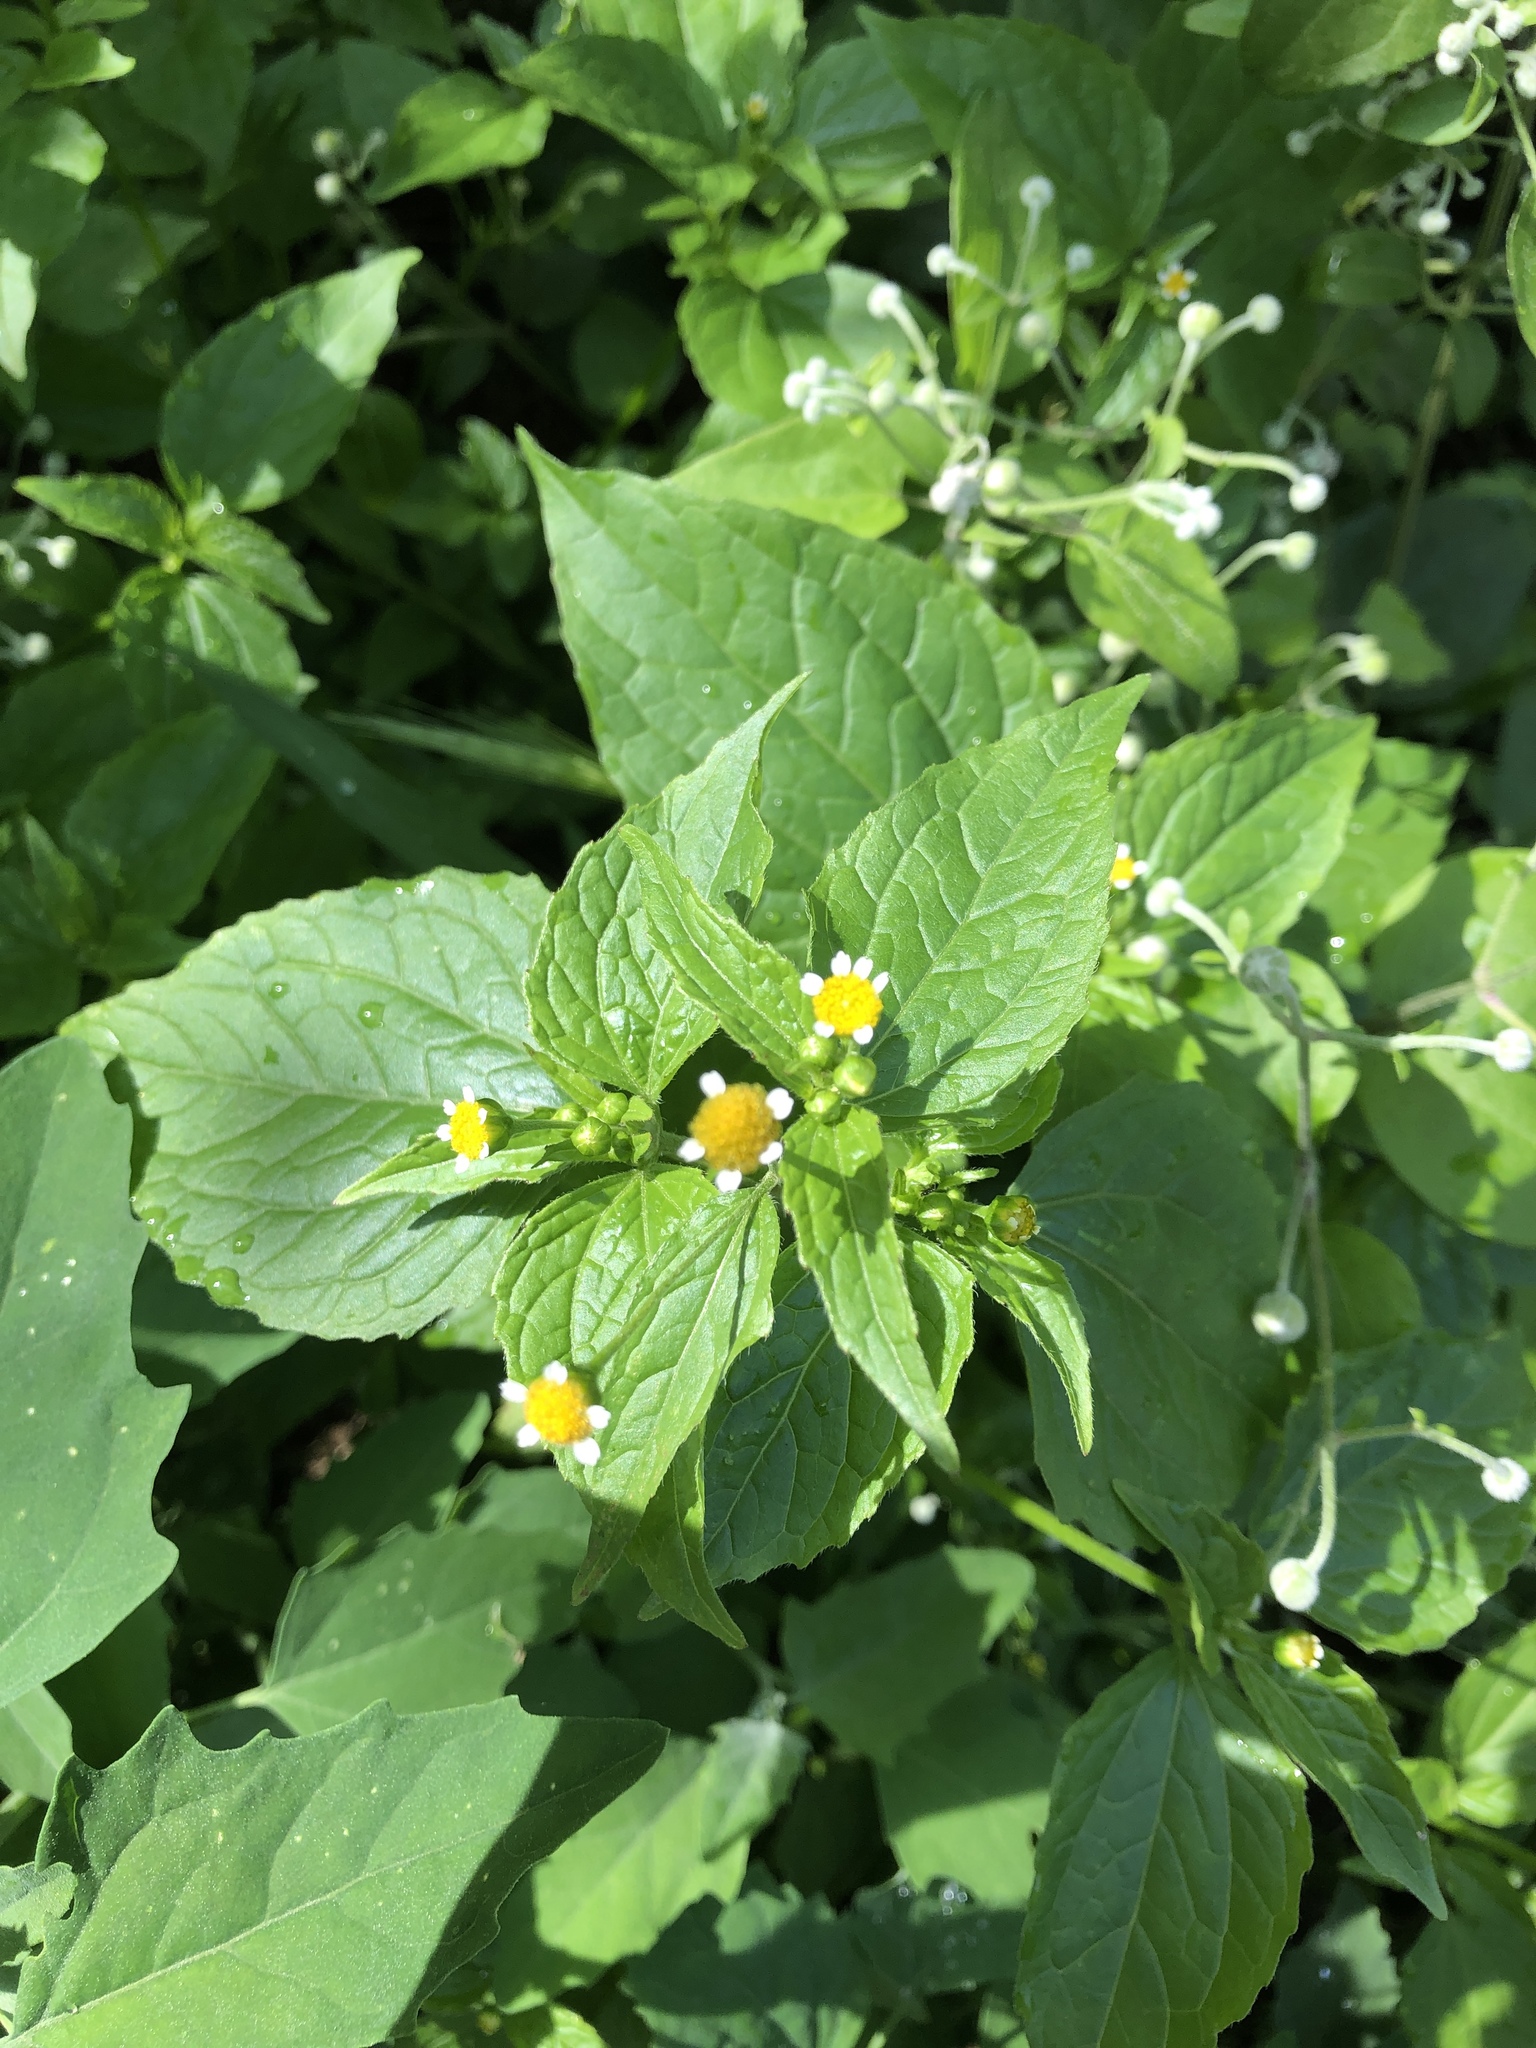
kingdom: Plantae
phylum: Tracheophyta
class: Magnoliopsida
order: Asterales
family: Asteraceae
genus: Galinsoga
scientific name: Galinsoga parviflora
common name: Gallant soldier
